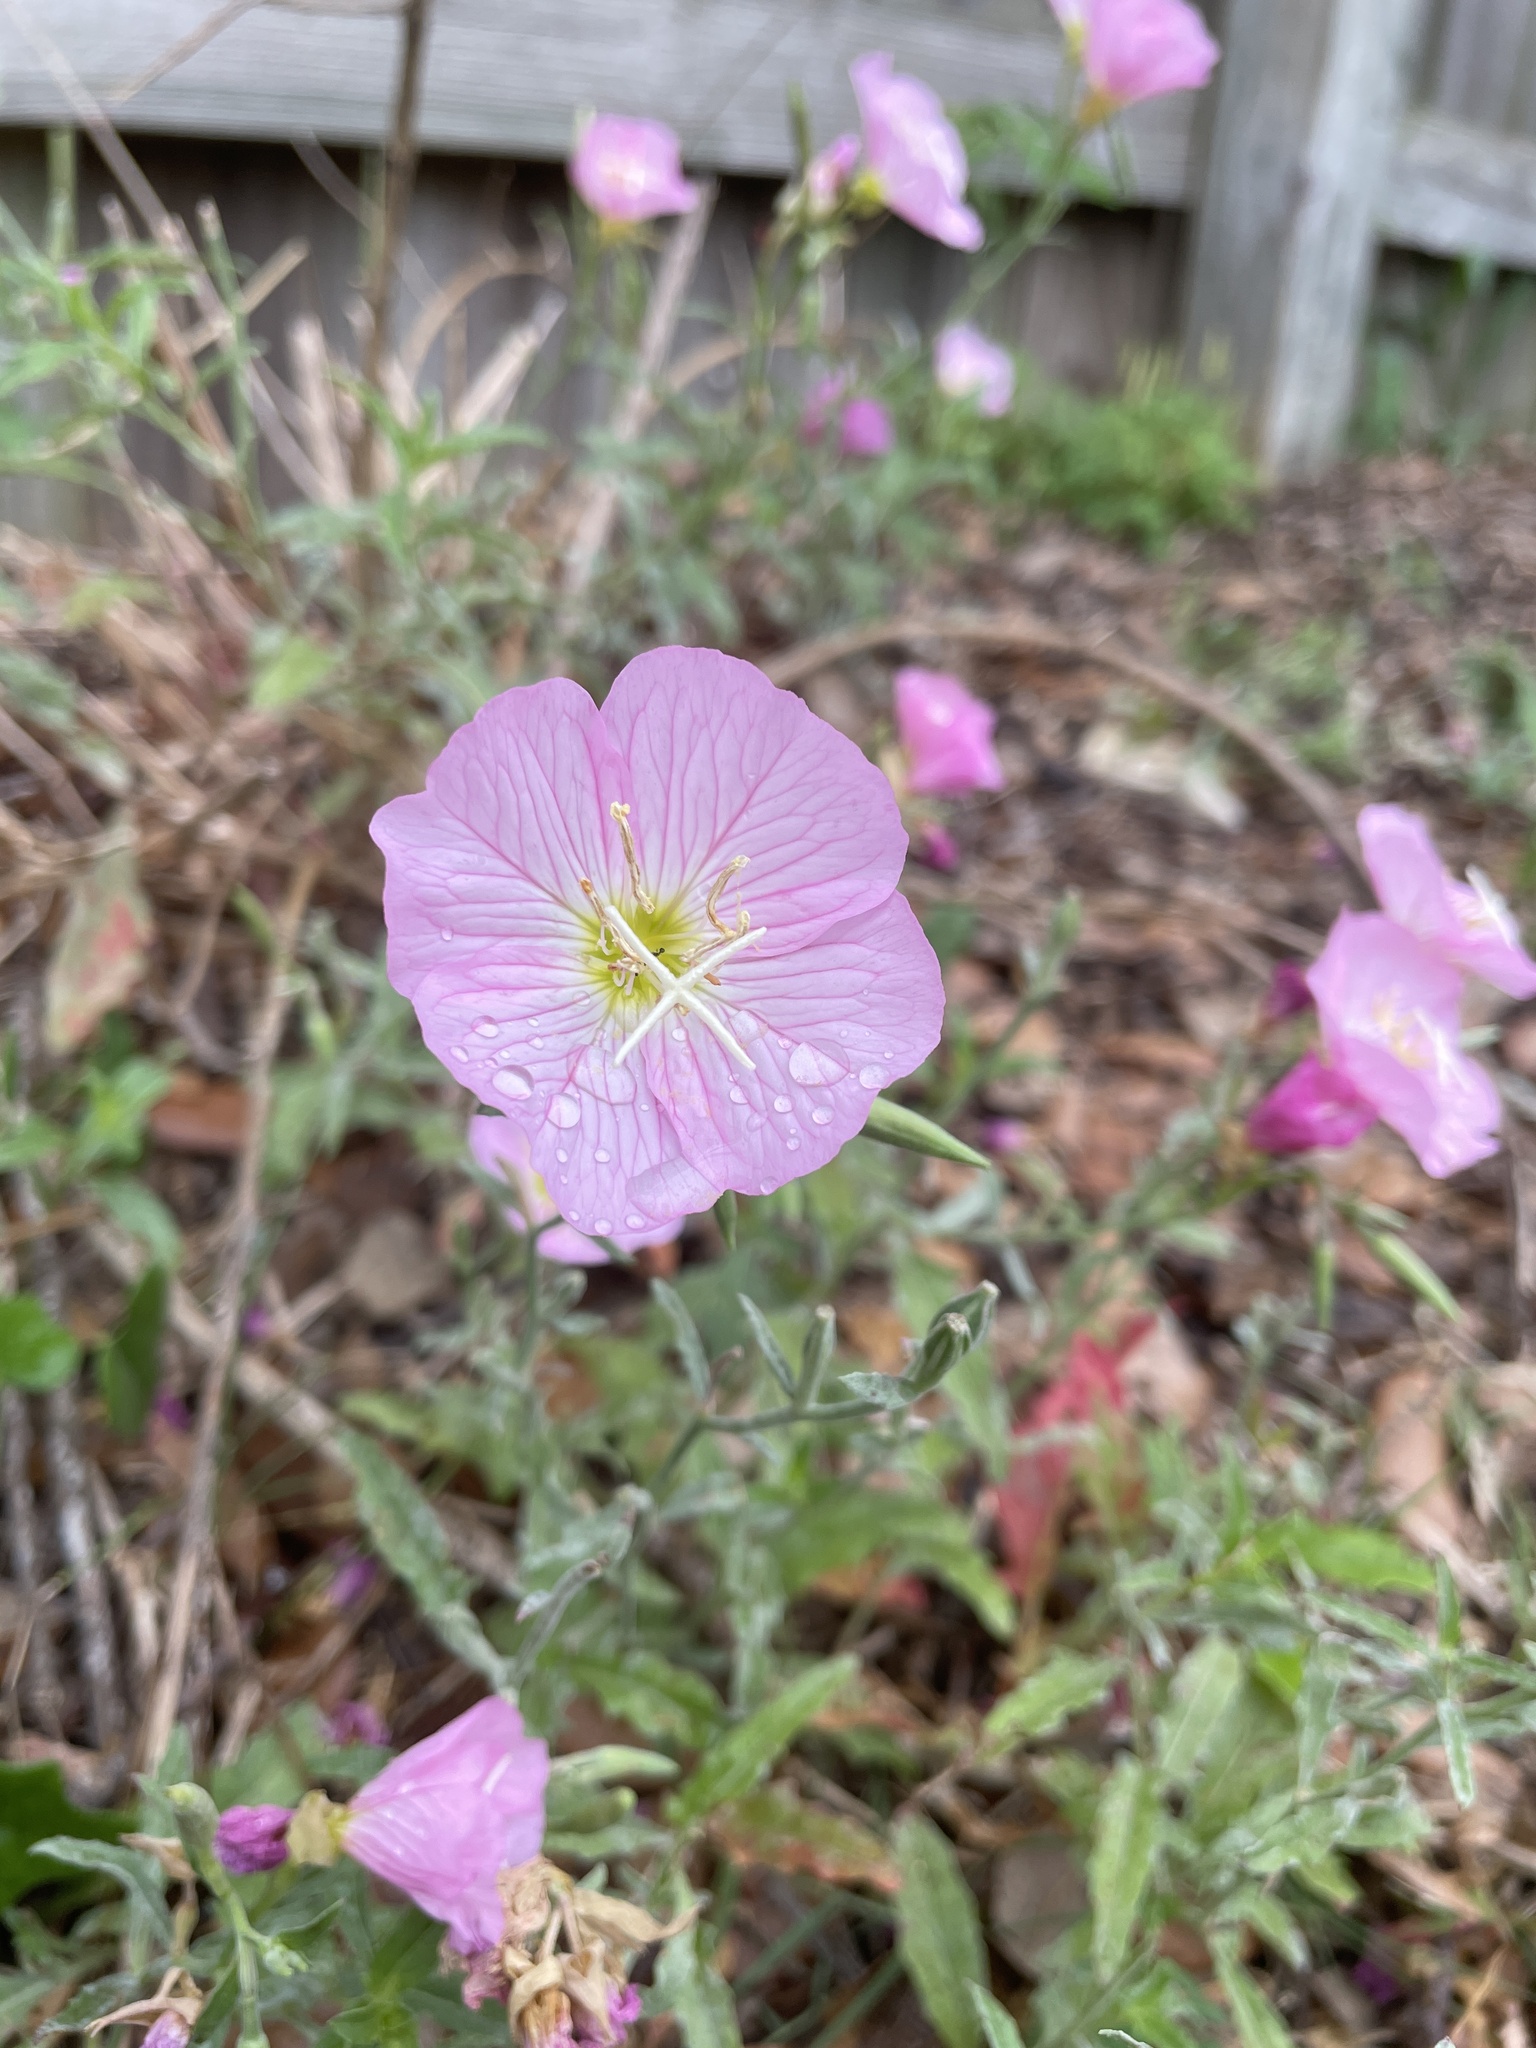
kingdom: Plantae
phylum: Tracheophyta
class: Magnoliopsida
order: Myrtales
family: Onagraceae
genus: Oenothera
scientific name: Oenothera speciosa
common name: White evening-primrose
